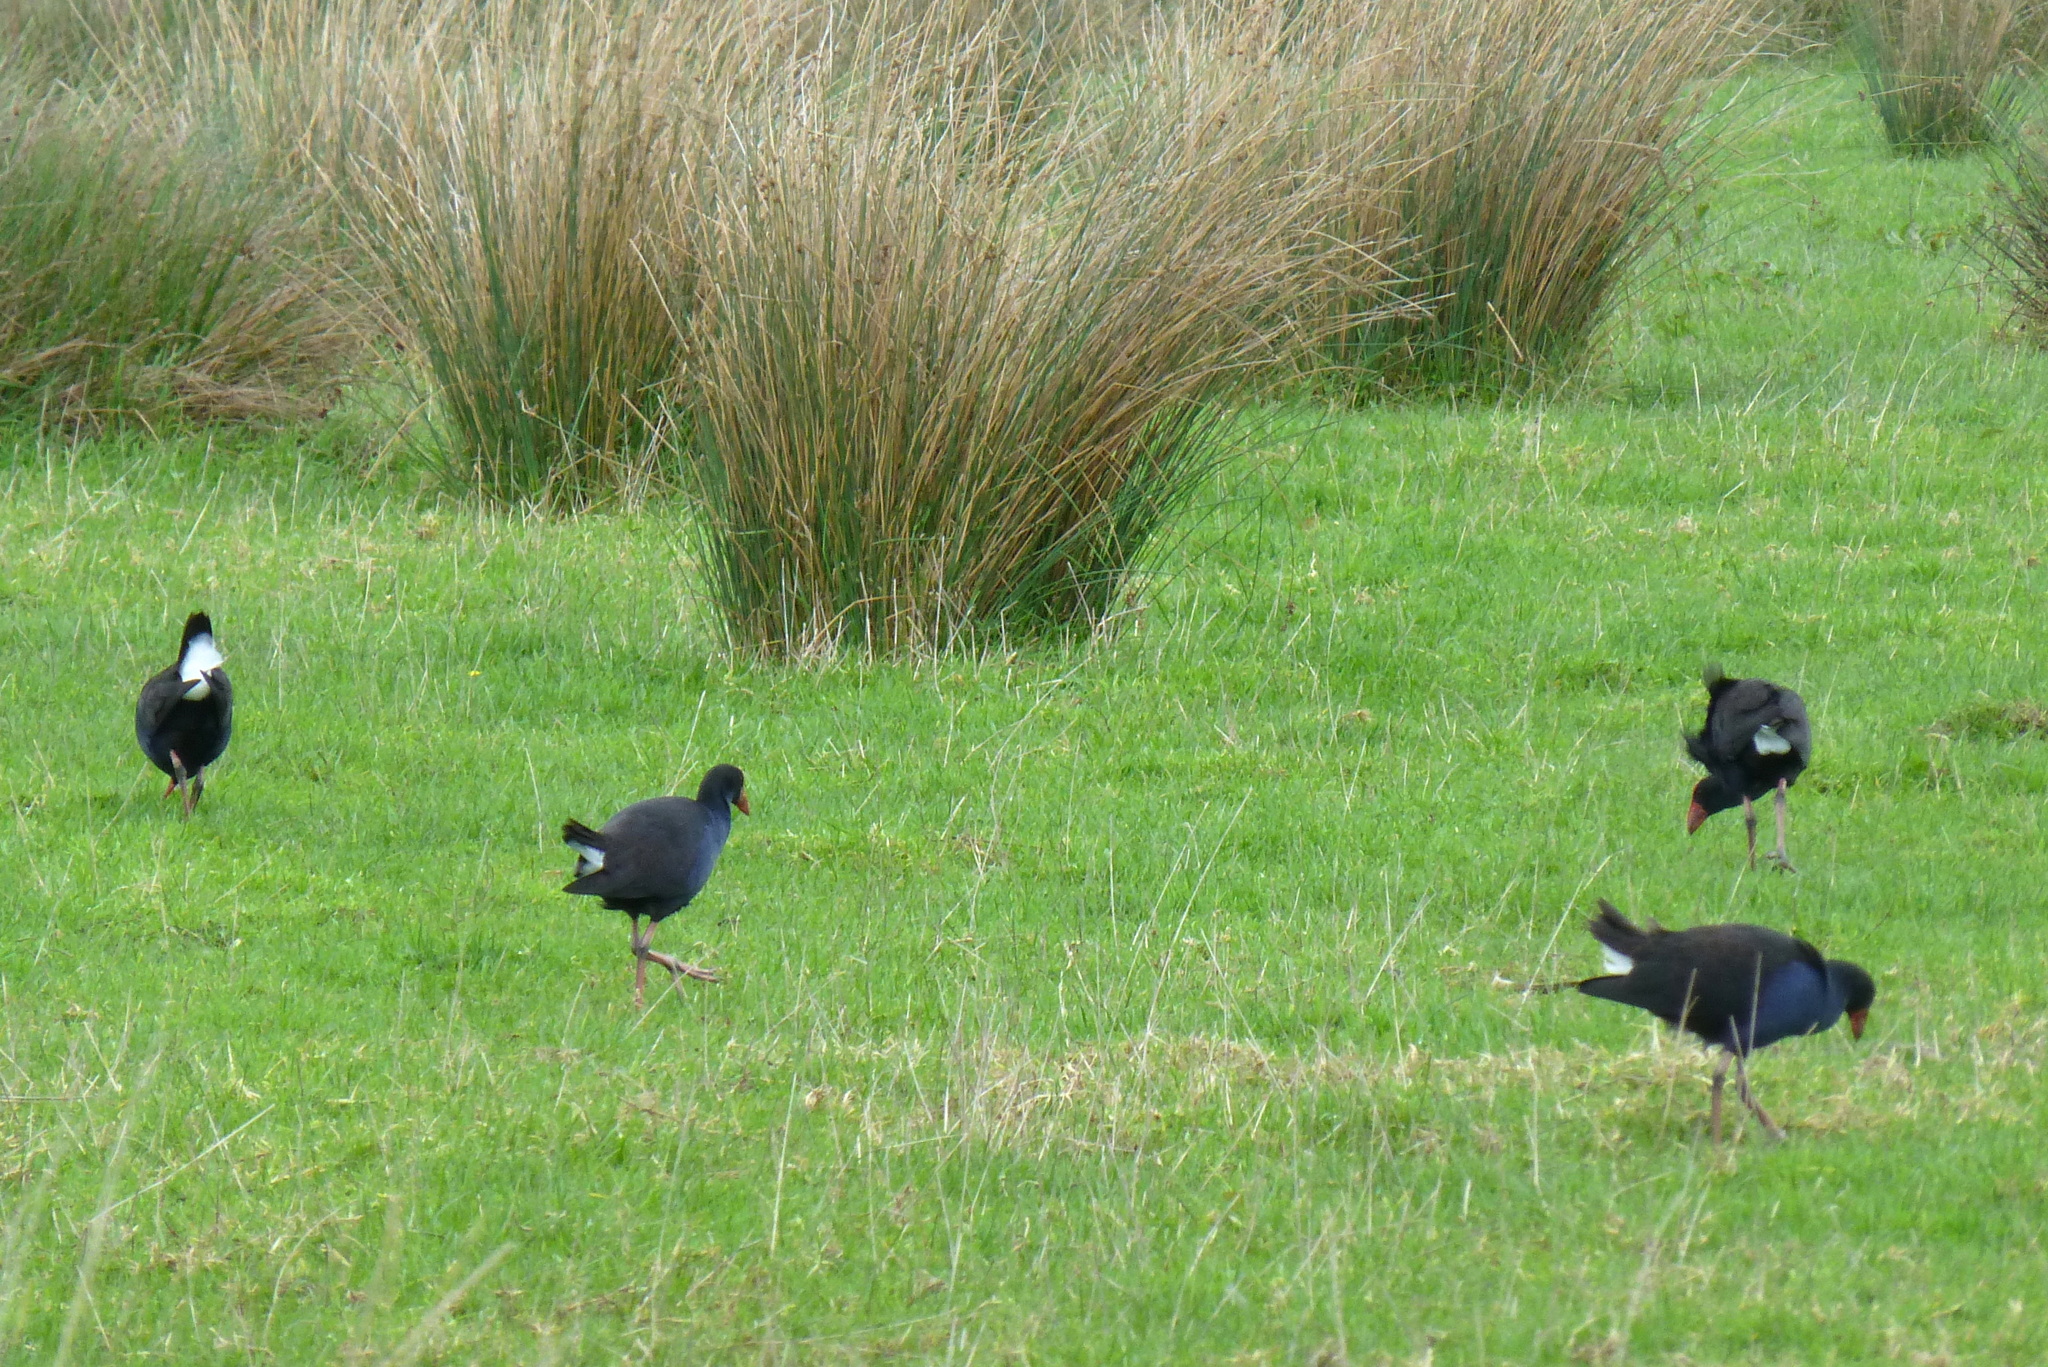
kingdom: Animalia
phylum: Chordata
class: Aves
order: Gruiformes
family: Rallidae
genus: Porphyrio
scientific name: Porphyrio melanotus
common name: Australasian swamphen
